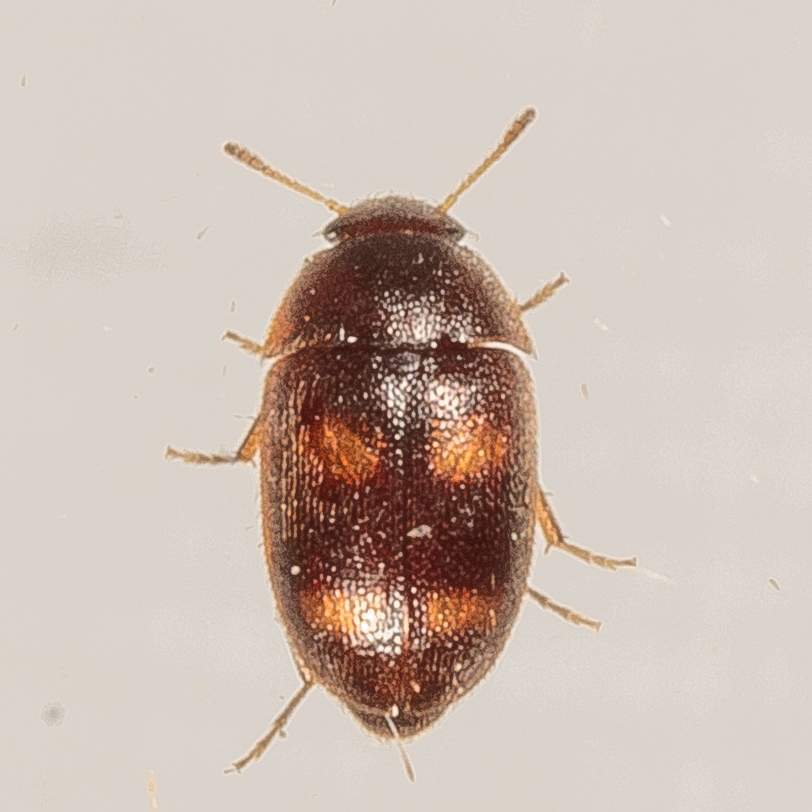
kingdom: Animalia
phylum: Arthropoda
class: Insecta
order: Coleoptera
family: Mycetophagidae
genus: Litargus
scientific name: Litargus tetraspilotus
